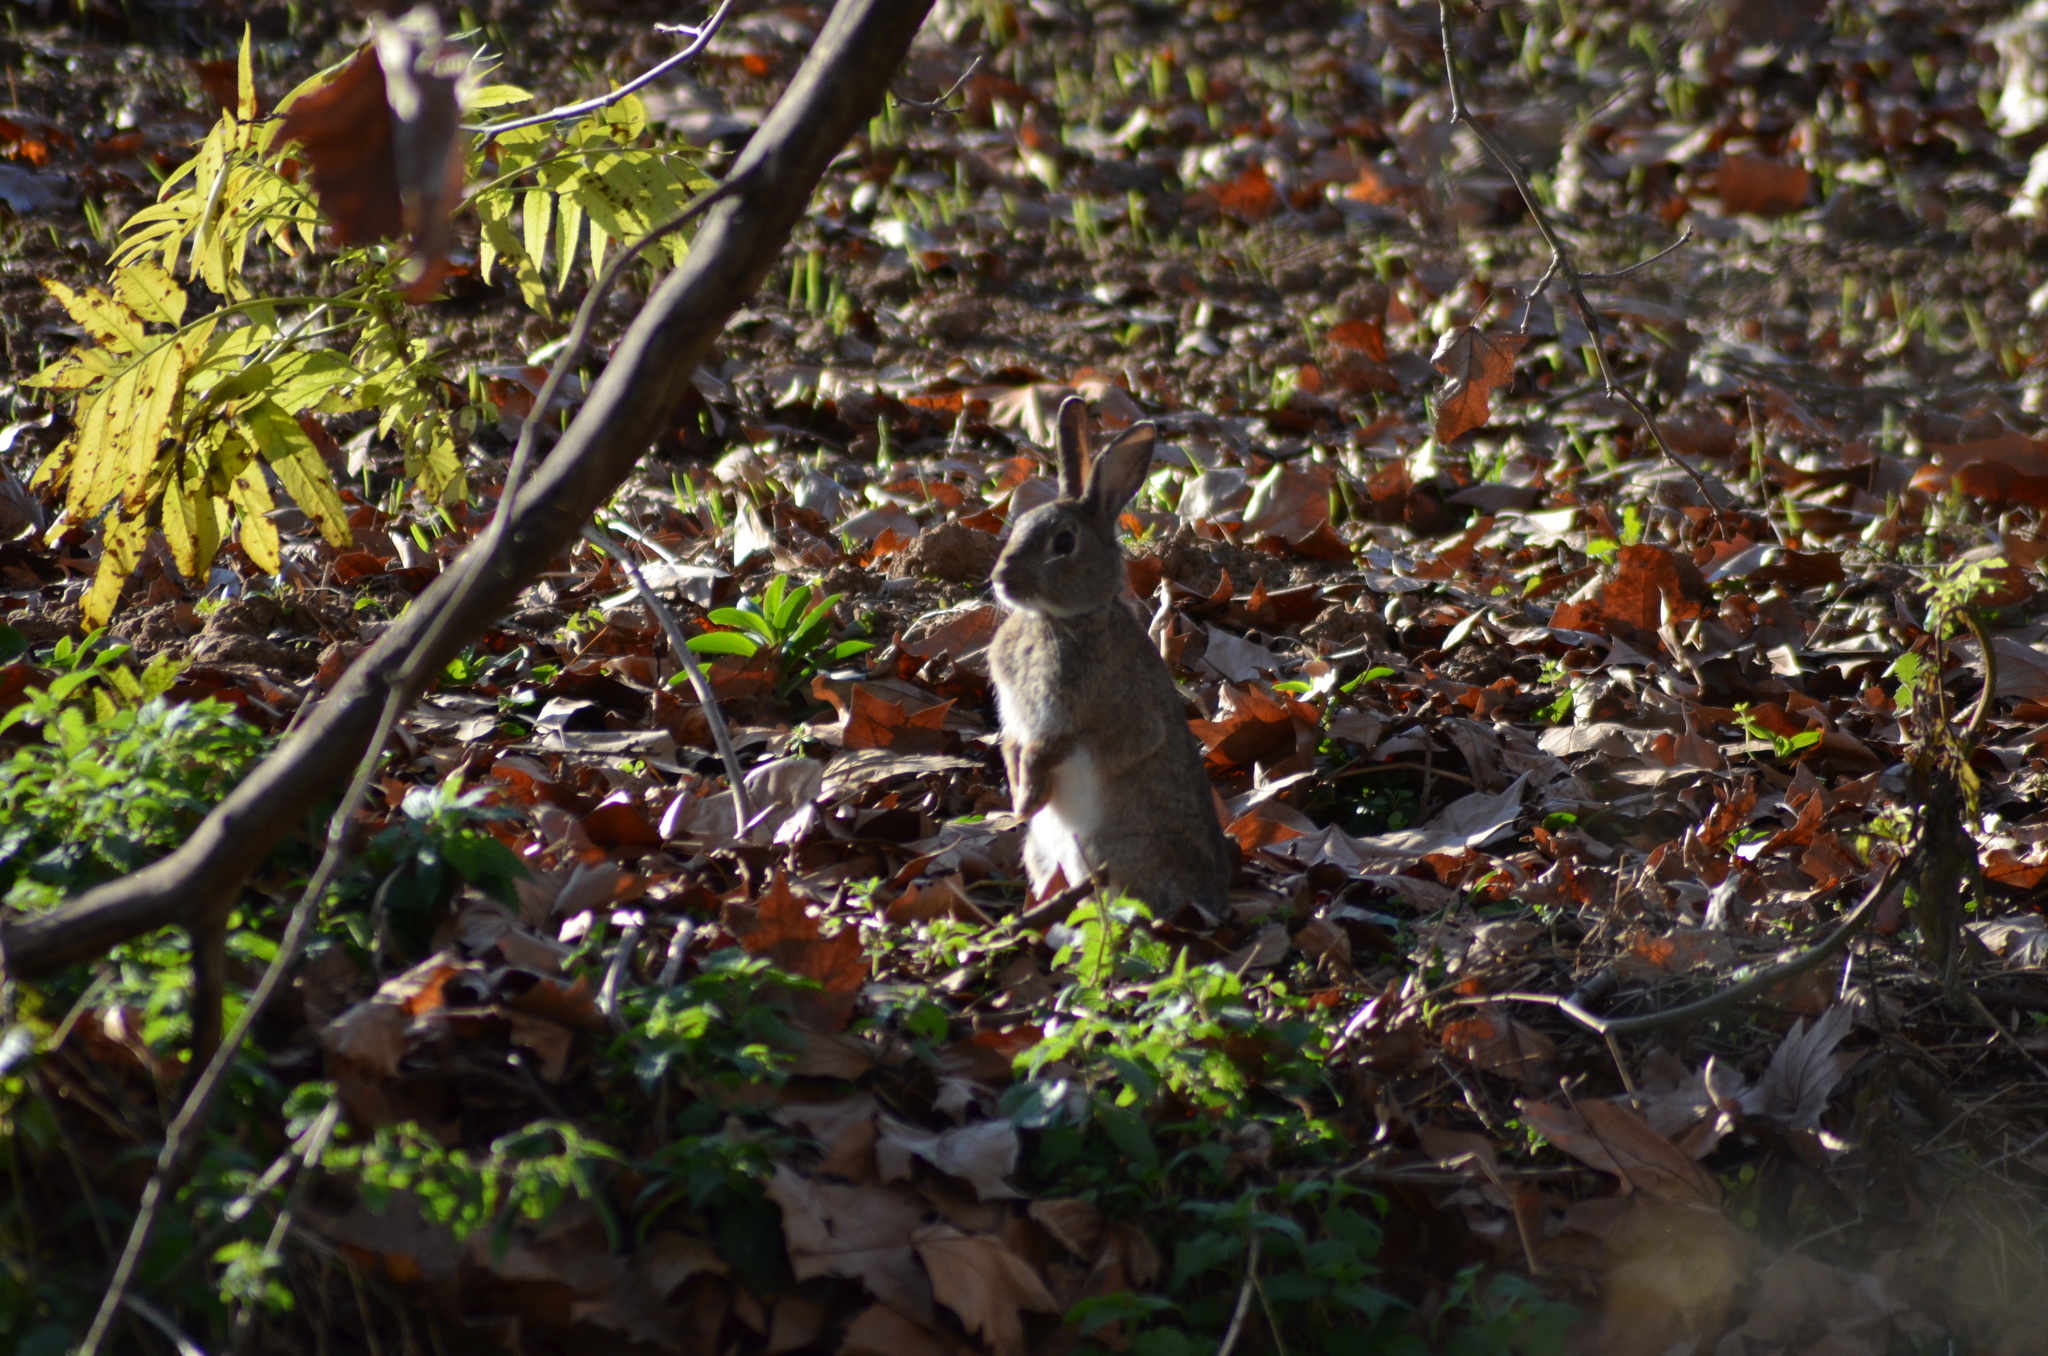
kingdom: Animalia
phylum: Chordata
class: Mammalia
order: Lagomorpha
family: Leporidae
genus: Oryctolagus
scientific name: Oryctolagus cuniculus
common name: European rabbit
